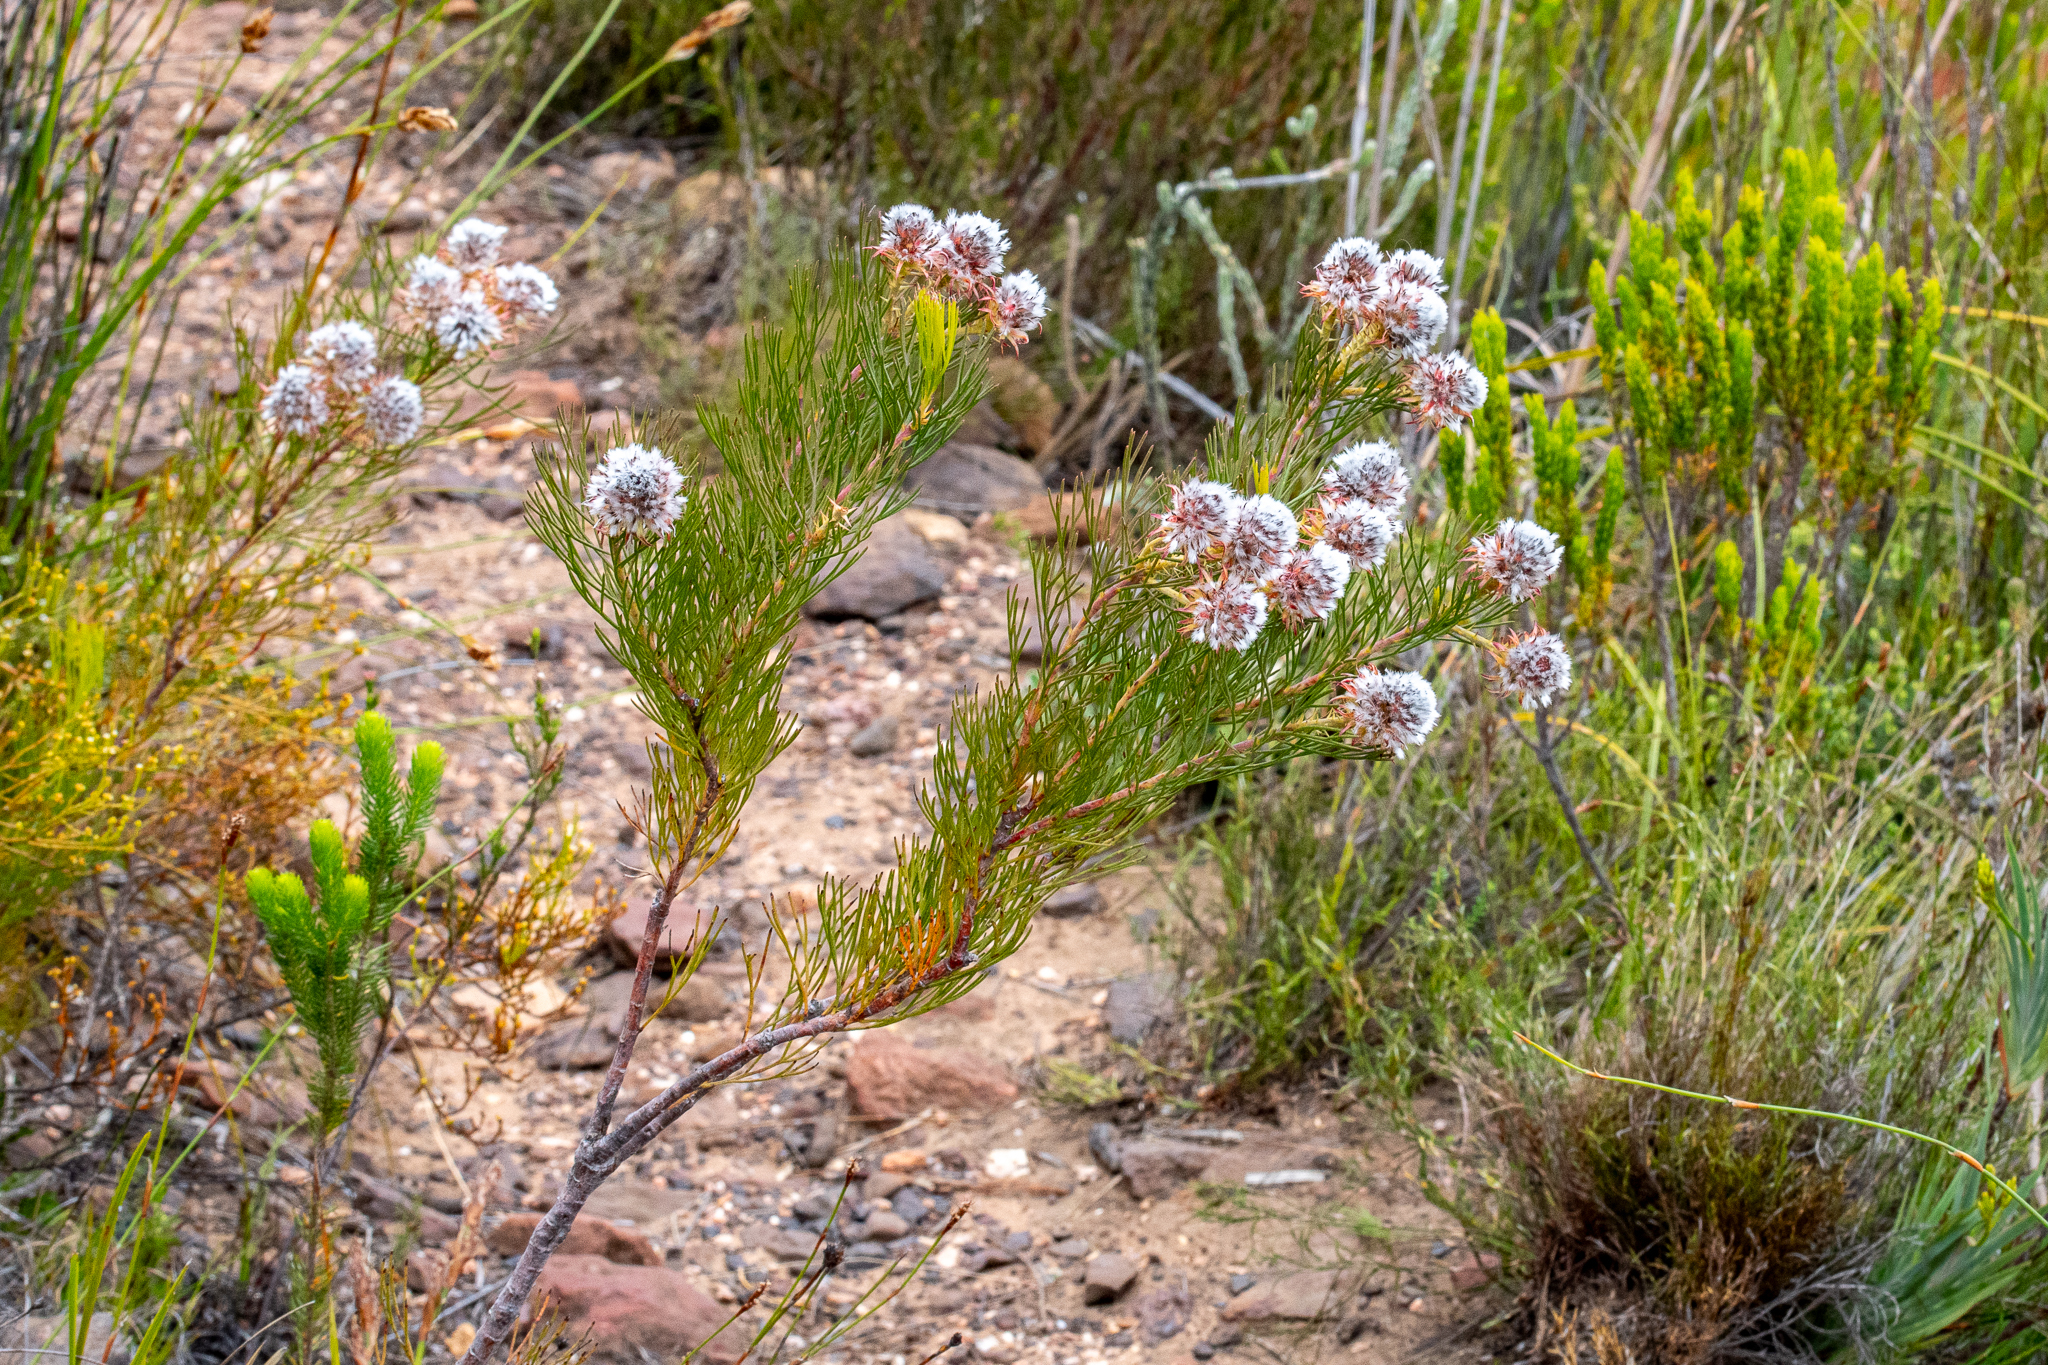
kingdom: Plantae
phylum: Tracheophyta
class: Magnoliopsida
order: Proteales
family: Proteaceae
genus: Serruria
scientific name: Serruria phylicoides
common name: Bearded spiderhead
